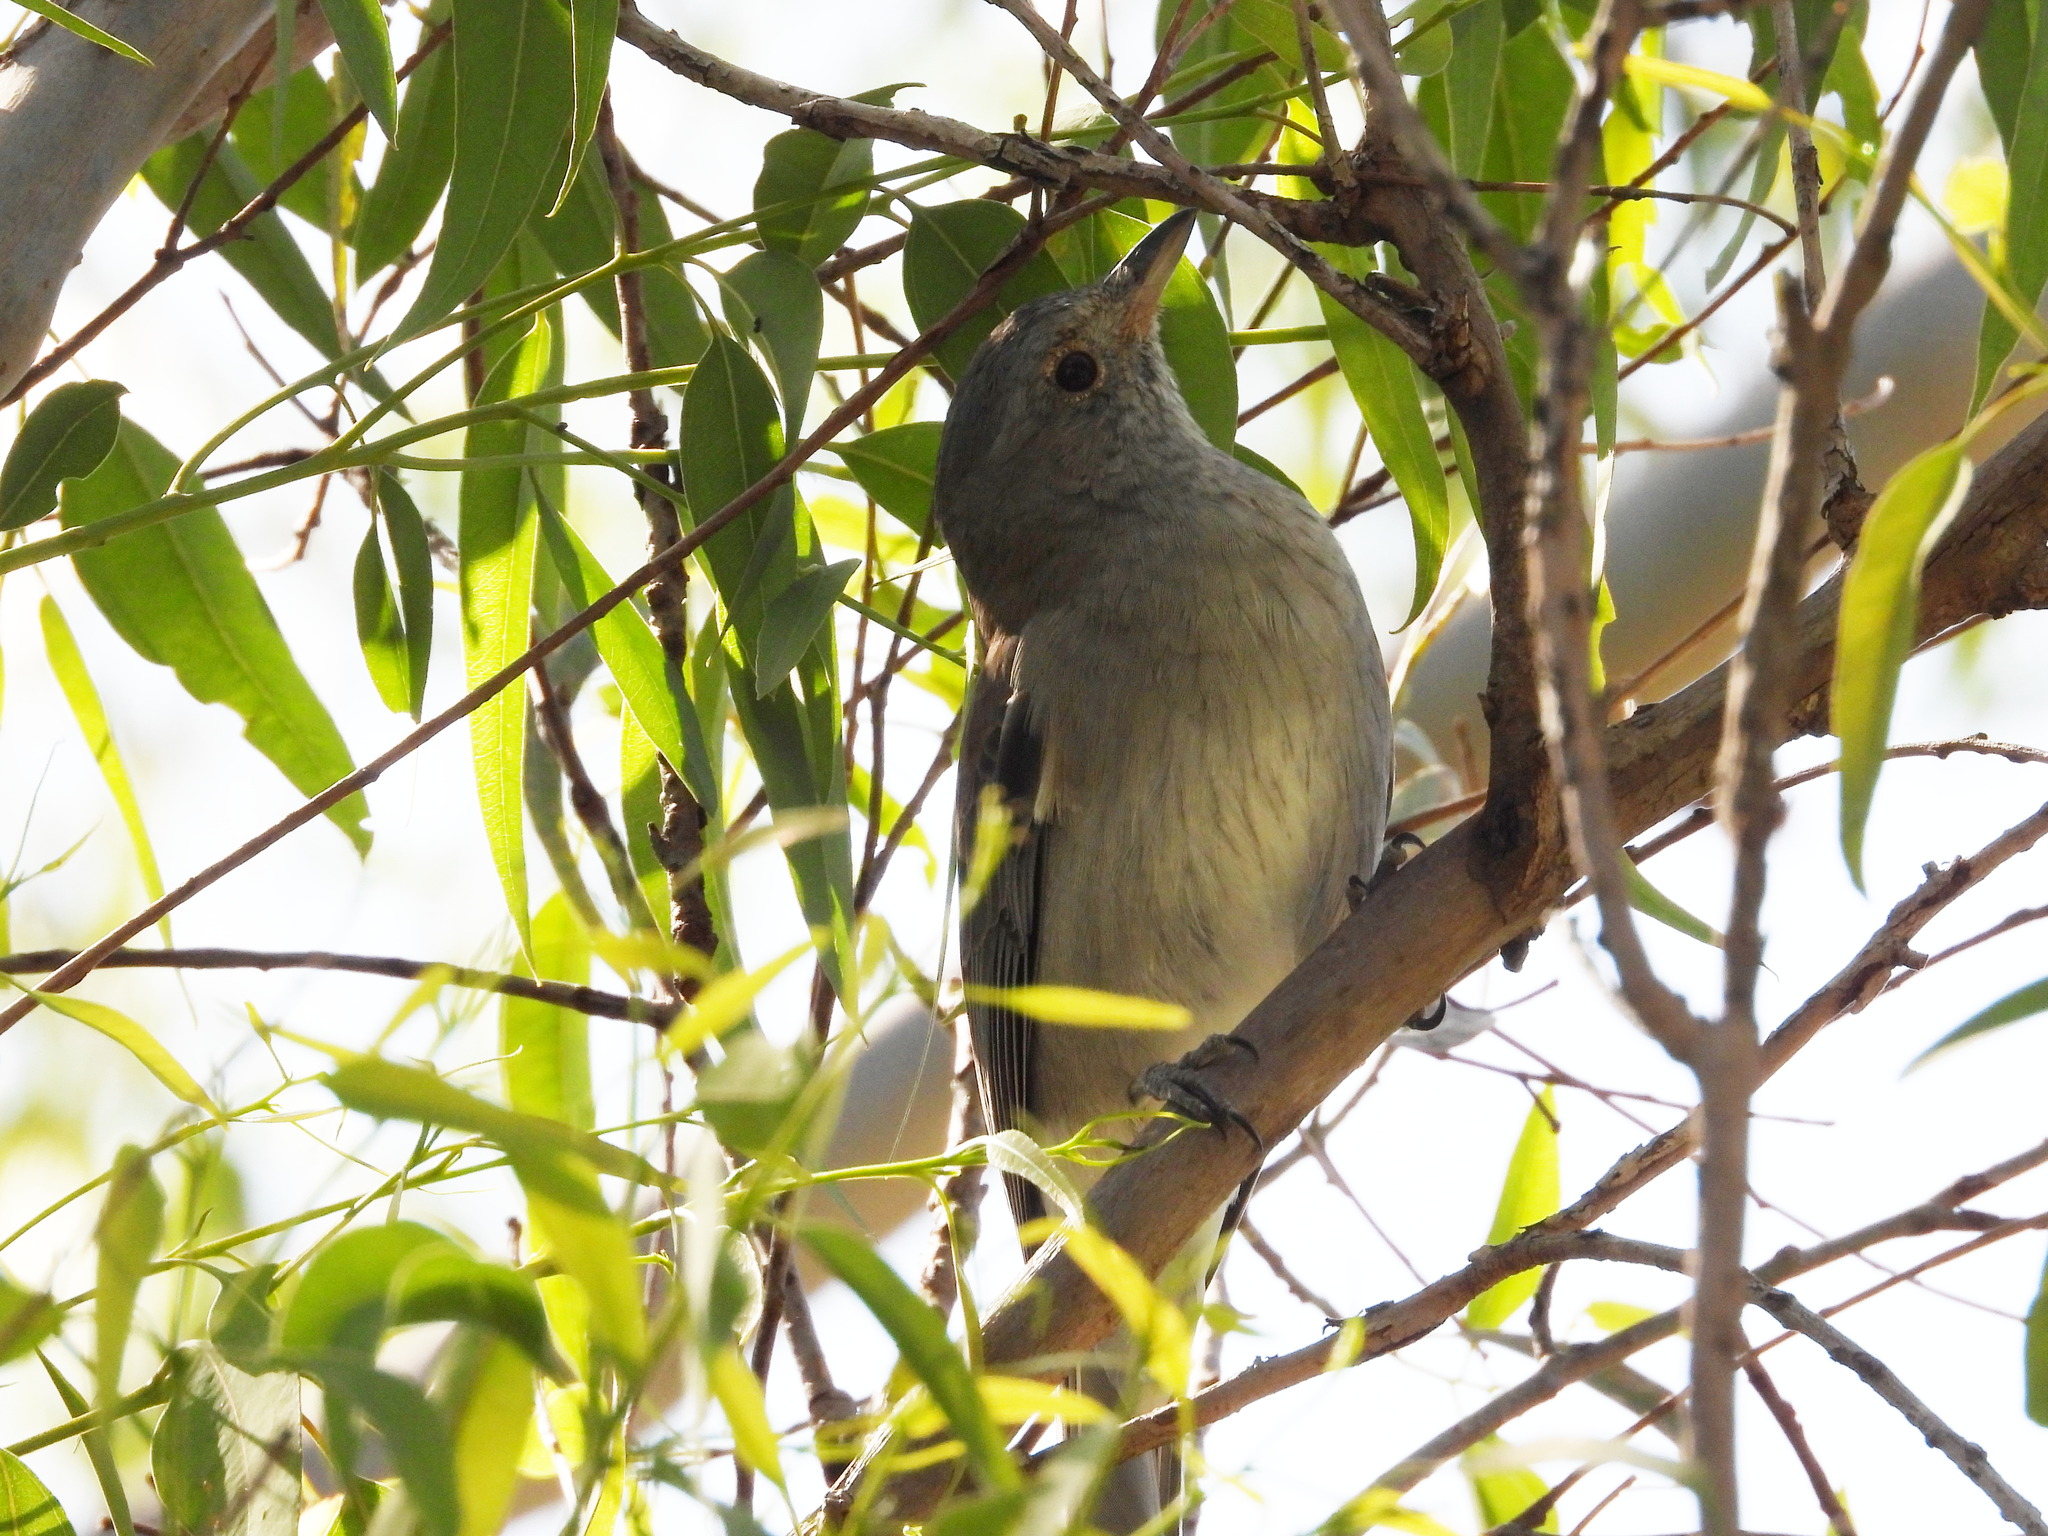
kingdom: Animalia
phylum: Chordata
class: Aves
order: Passeriformes
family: Pachycephalidae
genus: Colluricincla
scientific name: Colluricincla harmonica
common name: Grey shrikethrush
